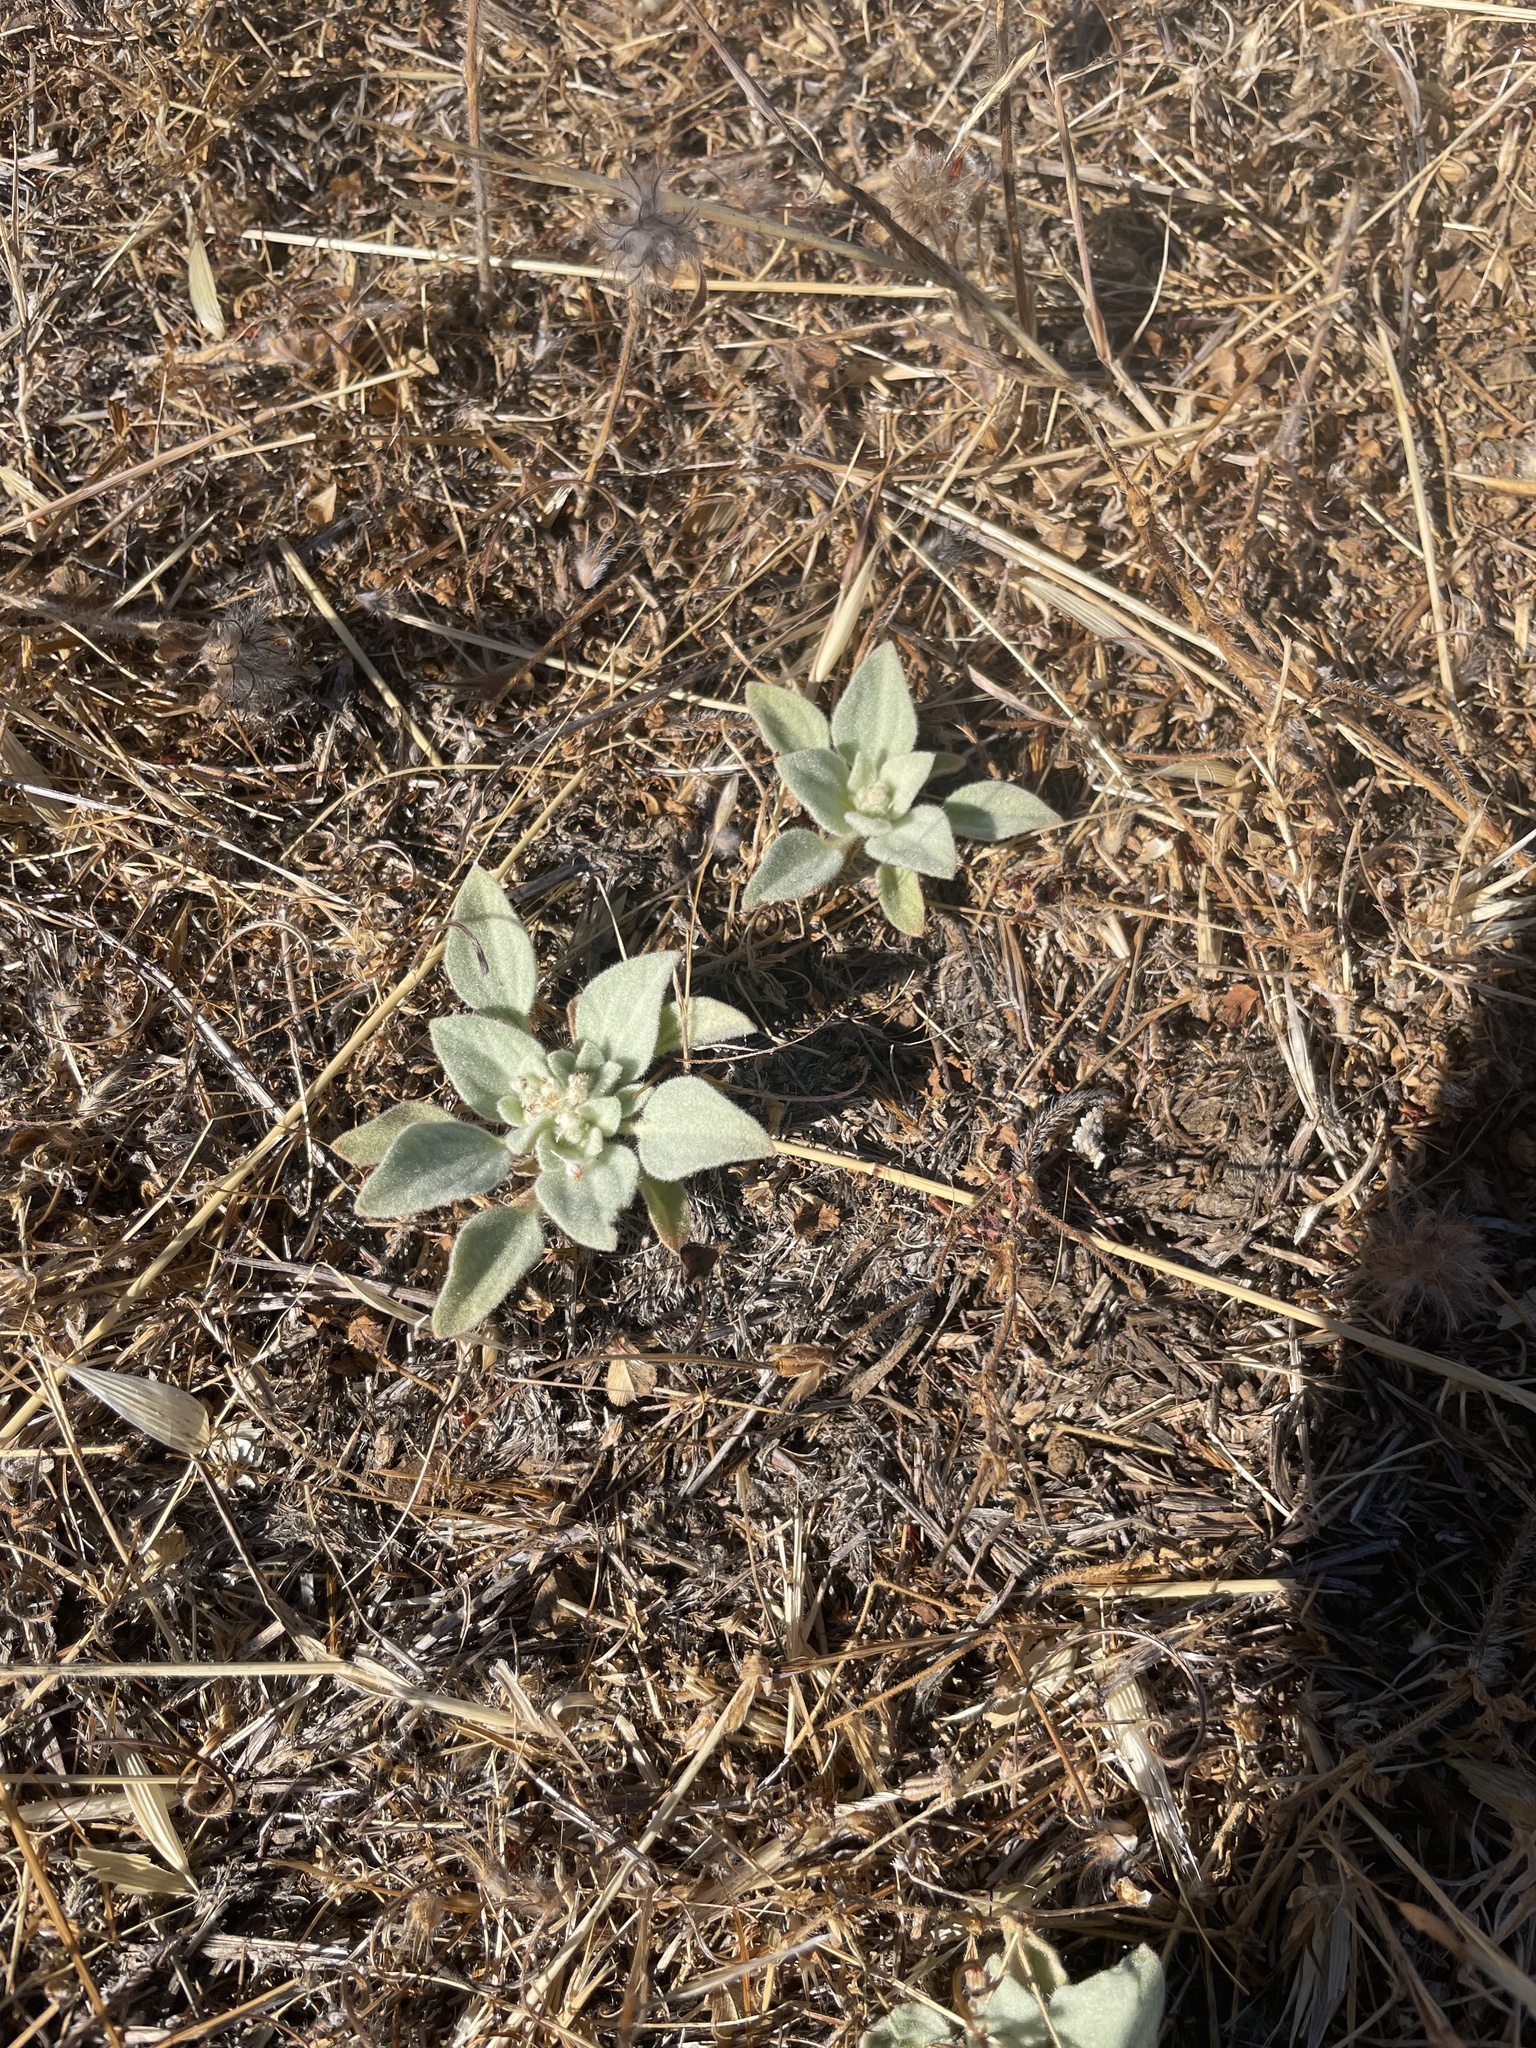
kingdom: Plantae
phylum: Tracheophyta
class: Magnoliopsida
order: Malpighiales
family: Euphorbiaceae
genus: Croton
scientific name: Croton setiger
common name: Dove weed
